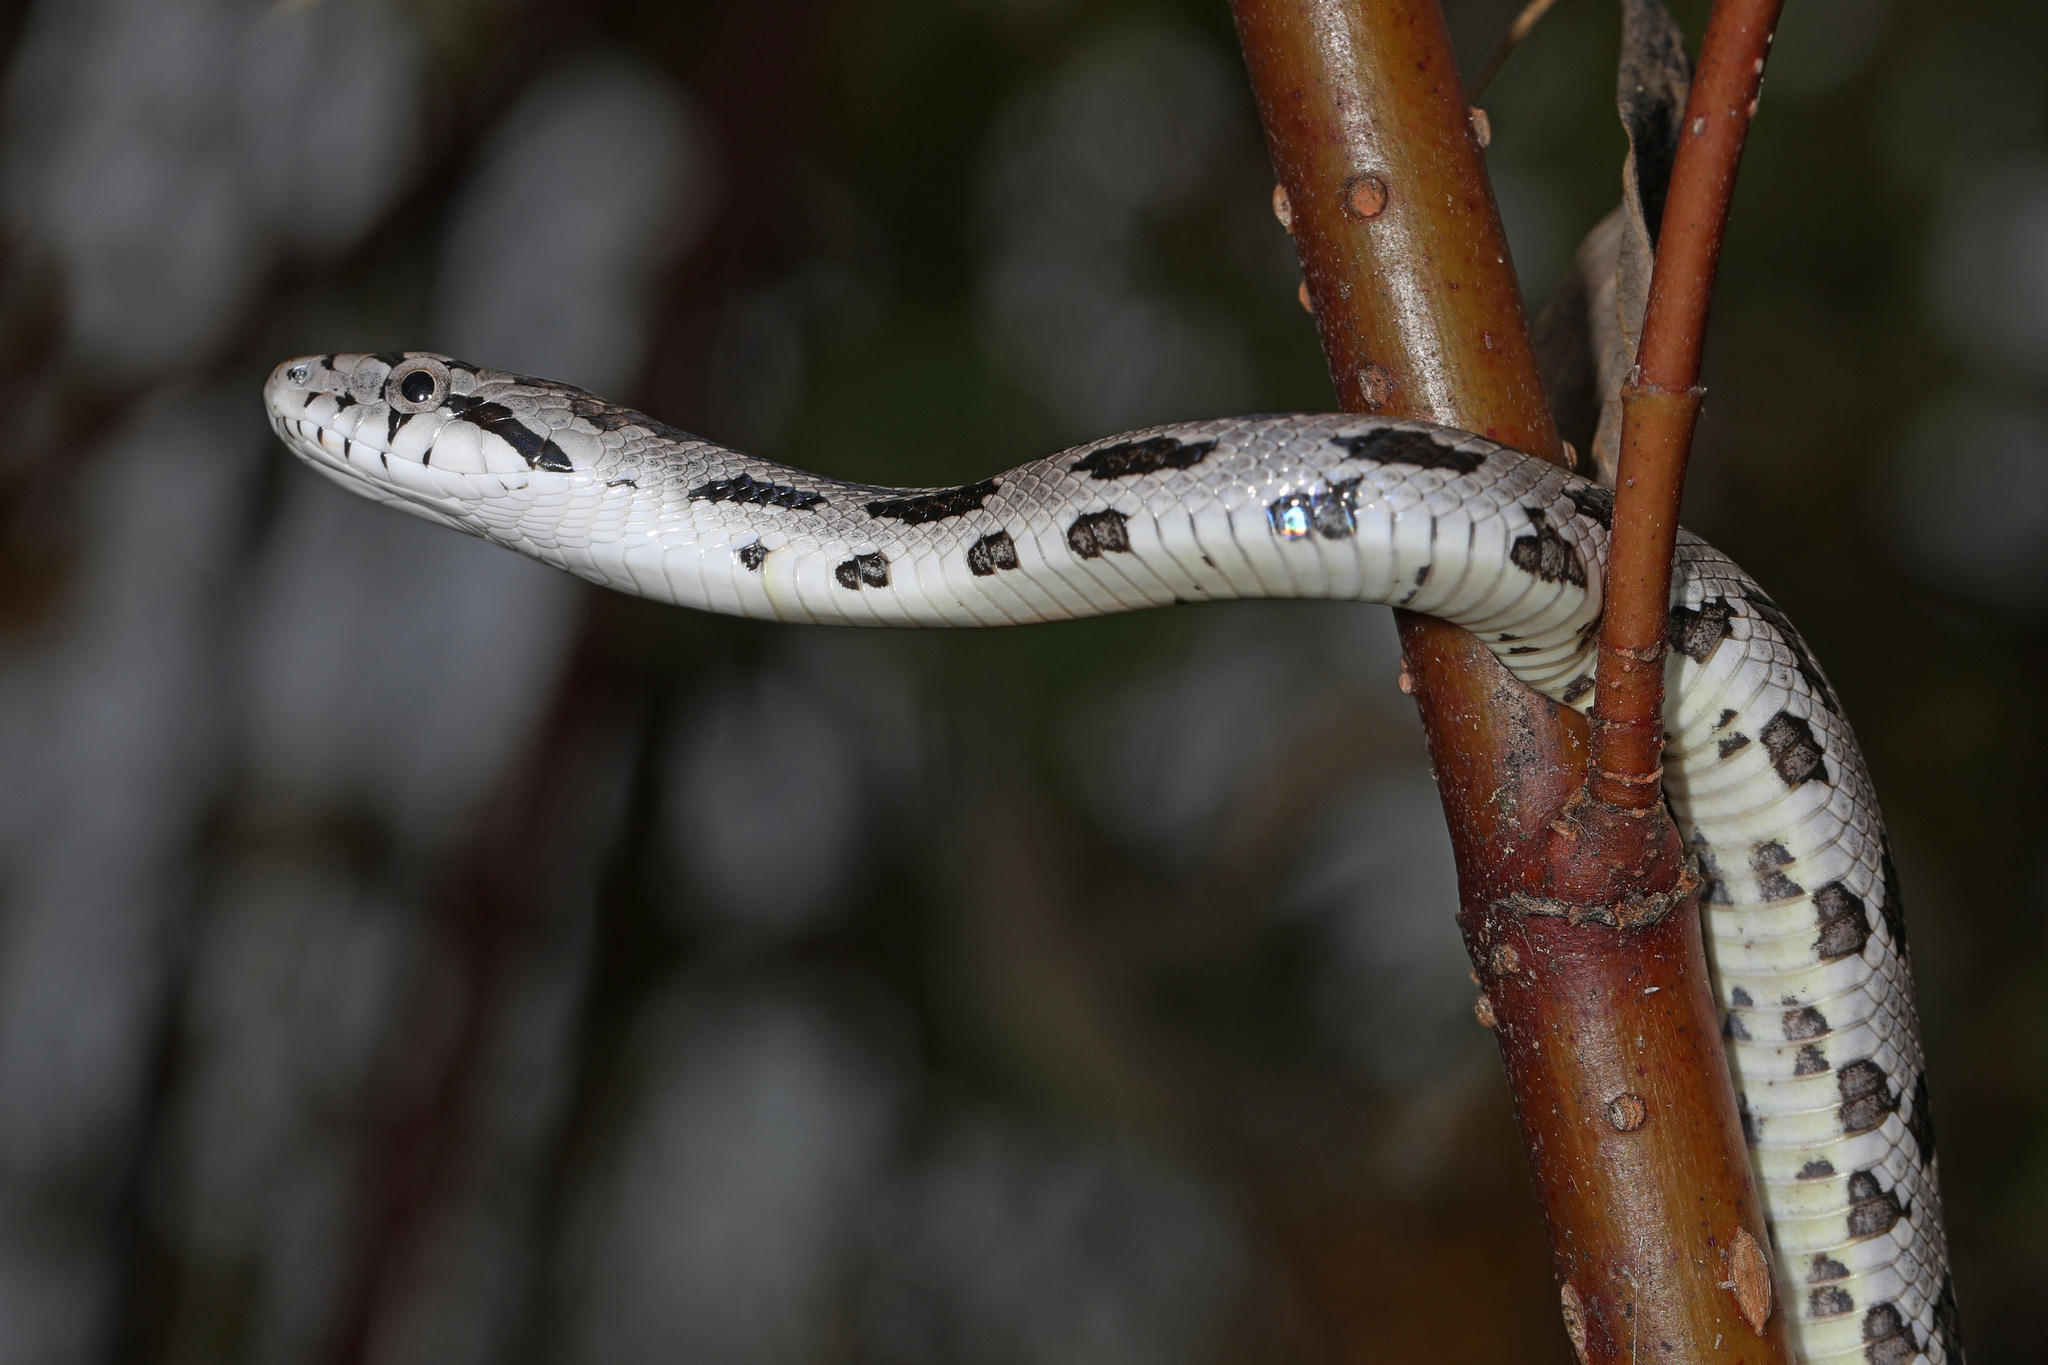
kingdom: Animalia
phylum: Chordata
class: Squamata
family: Colubridae
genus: Pantherophis
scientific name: Pantherophis alleghaniensis
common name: Eastern rat snake
